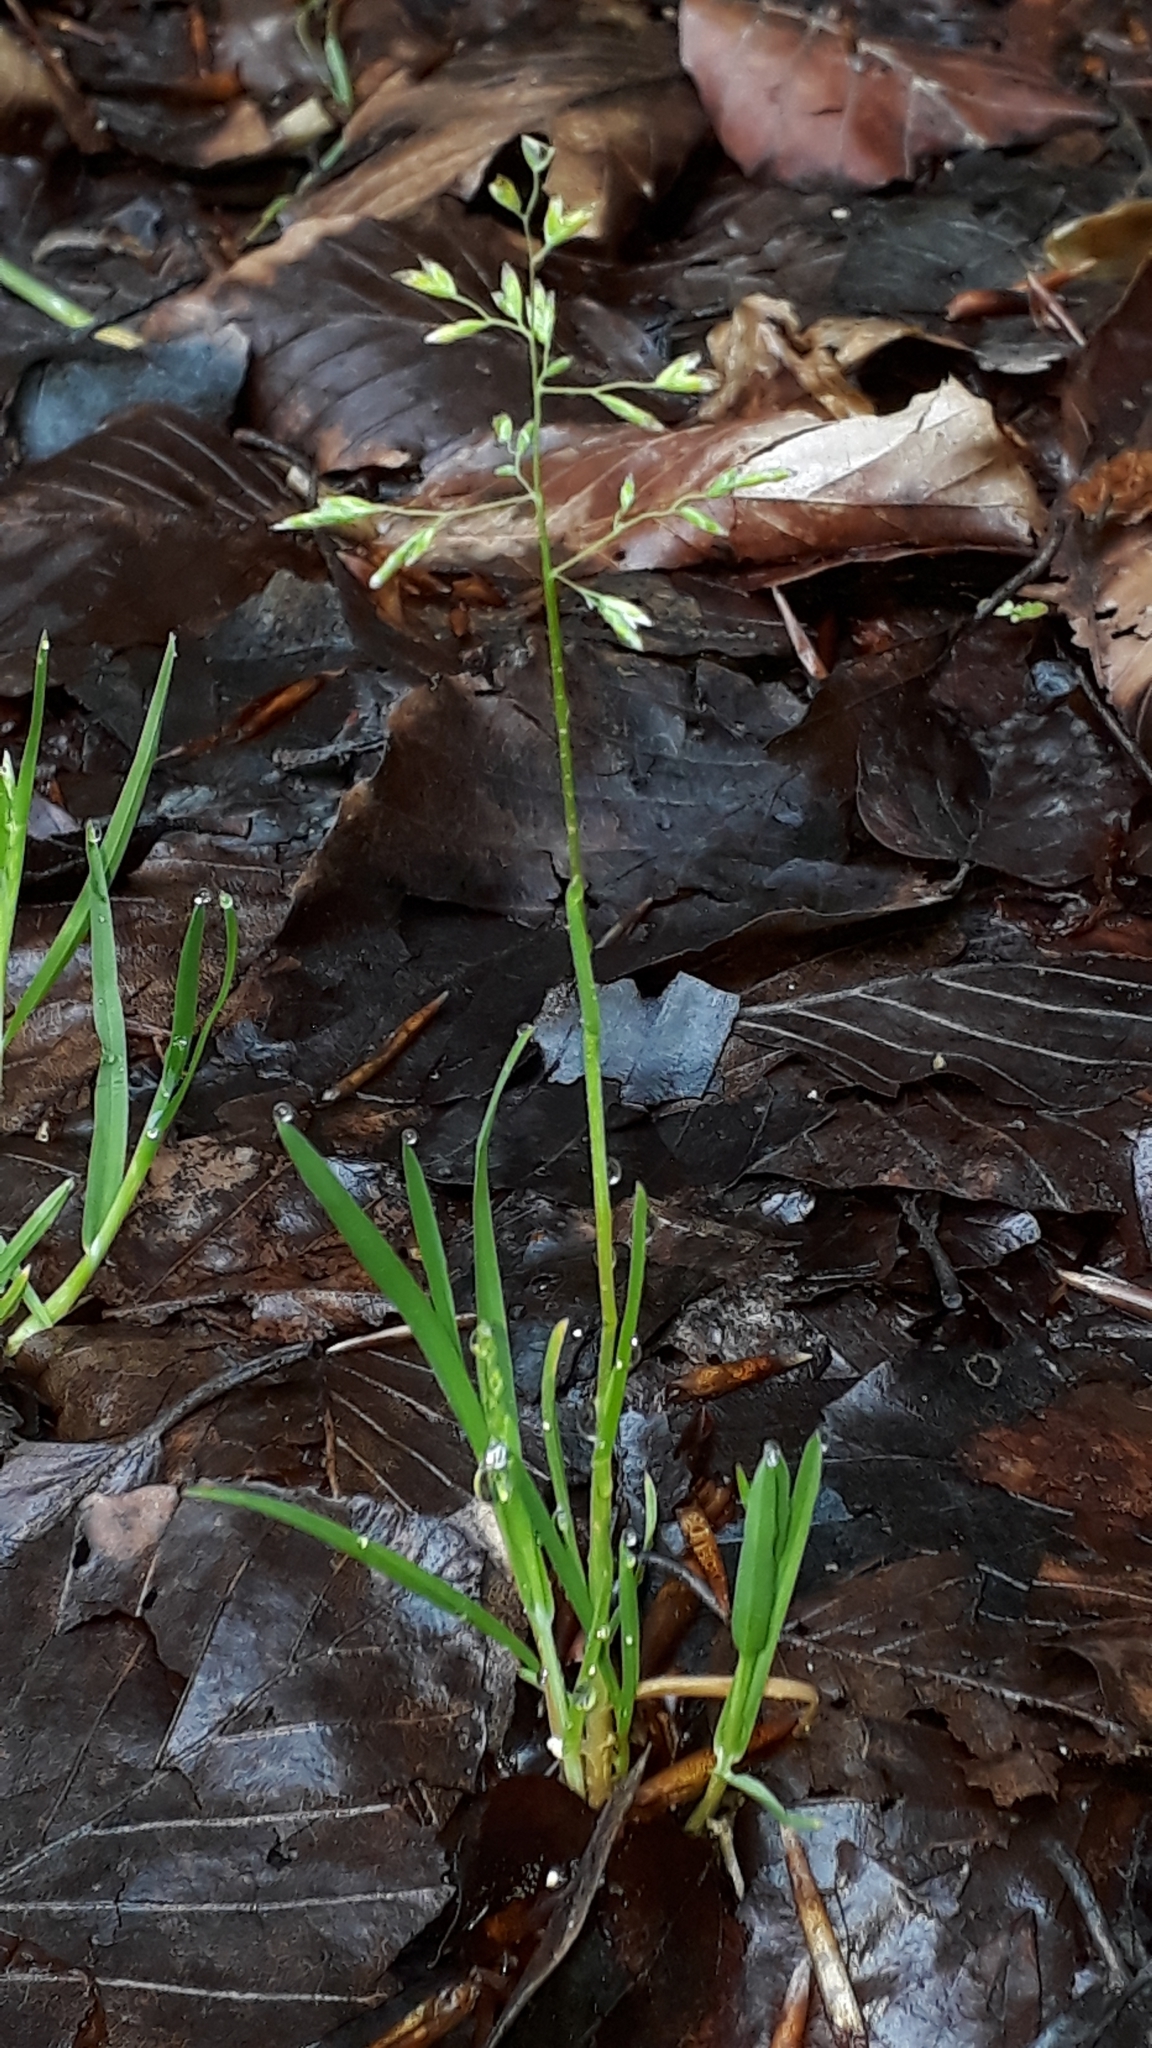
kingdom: Plantae
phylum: Tracheophyta
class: Liliopsida
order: Poales
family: Poaceae
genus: Poa
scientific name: Poa annua
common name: Annual bluegrass
